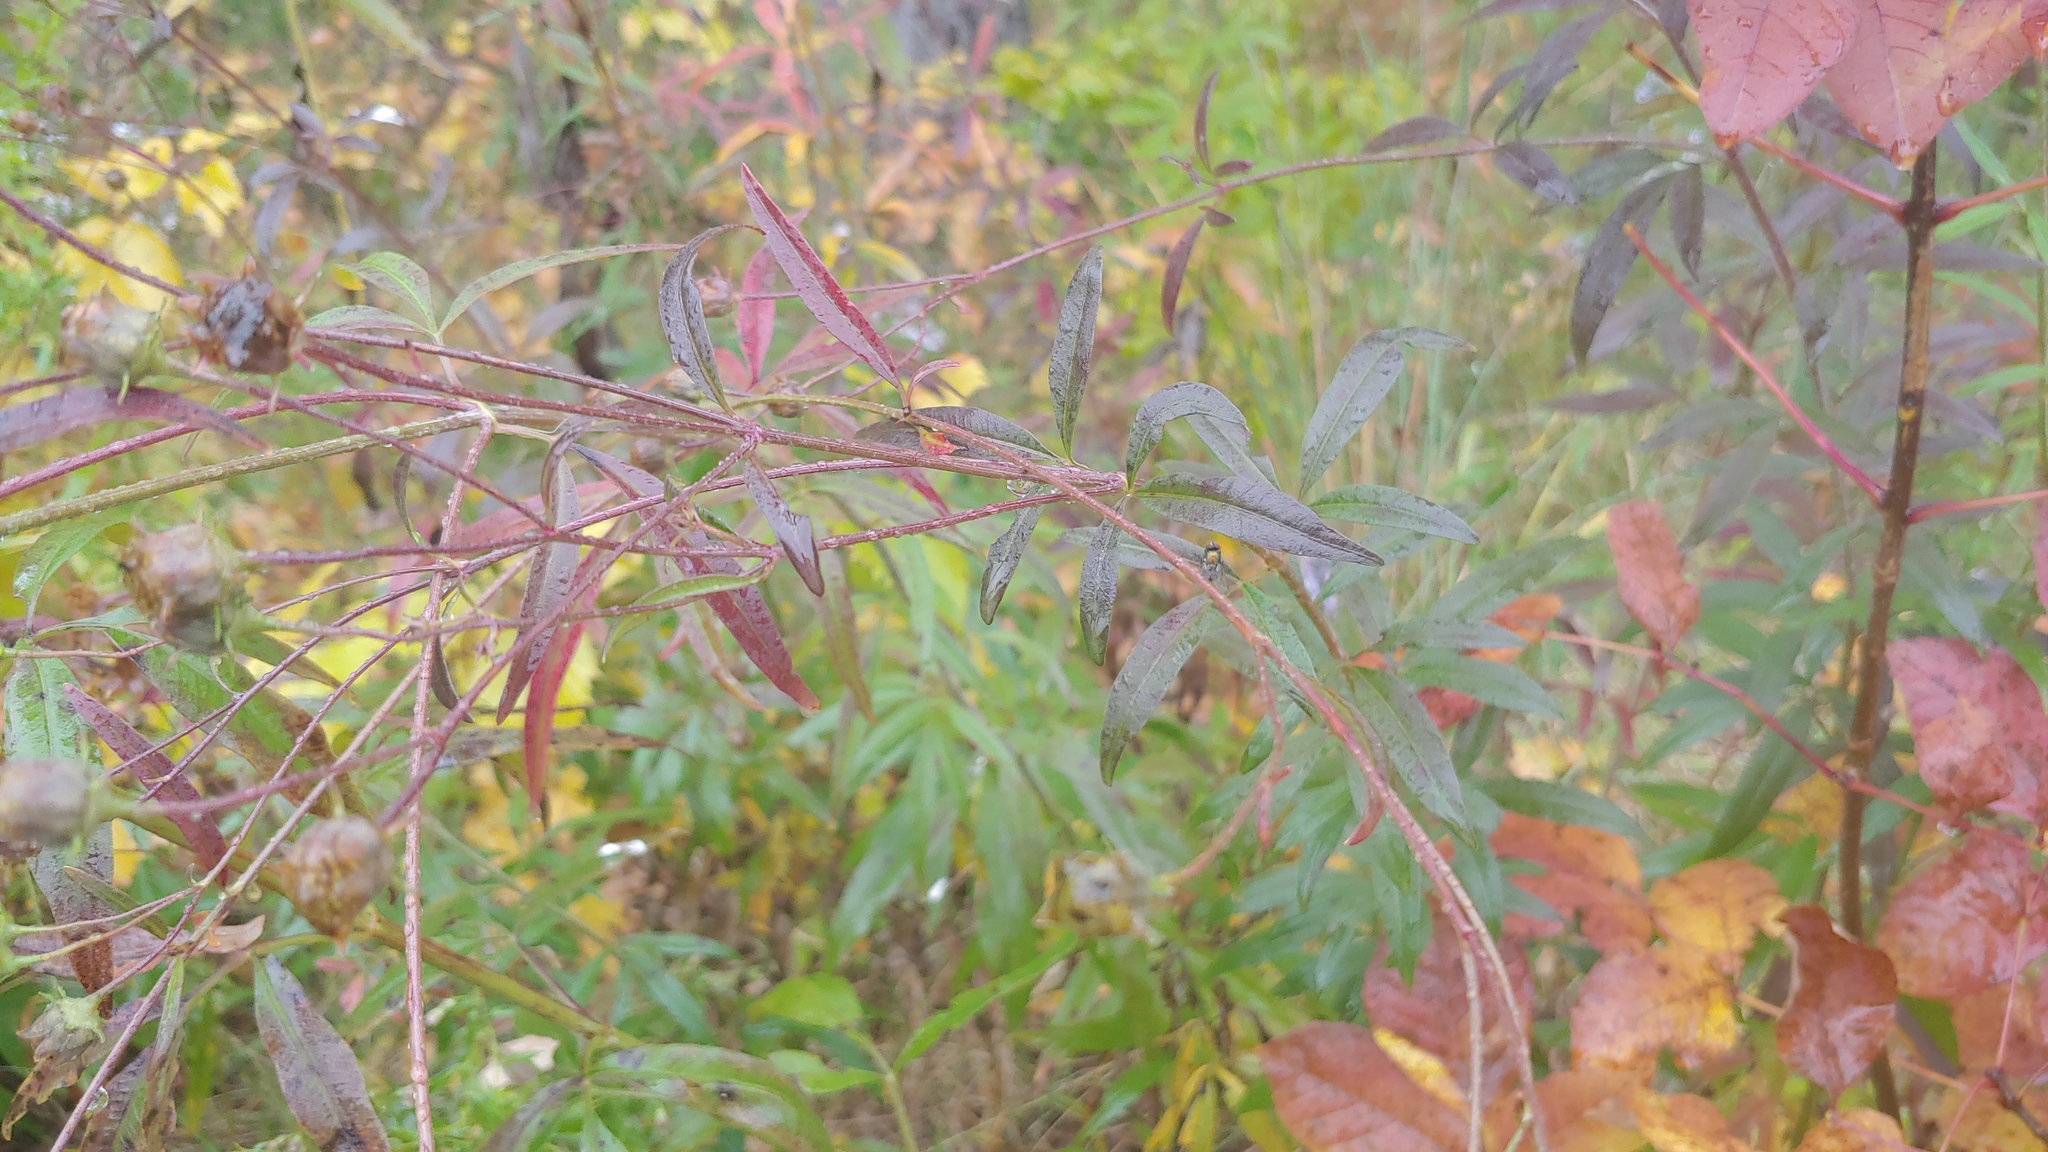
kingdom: Plantae
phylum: Tracheophyta
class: Magnoliopsida
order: Asterales
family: Asteraceae
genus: Coreopsis
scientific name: Coreopsis tripteris
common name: Tall coreopsis
